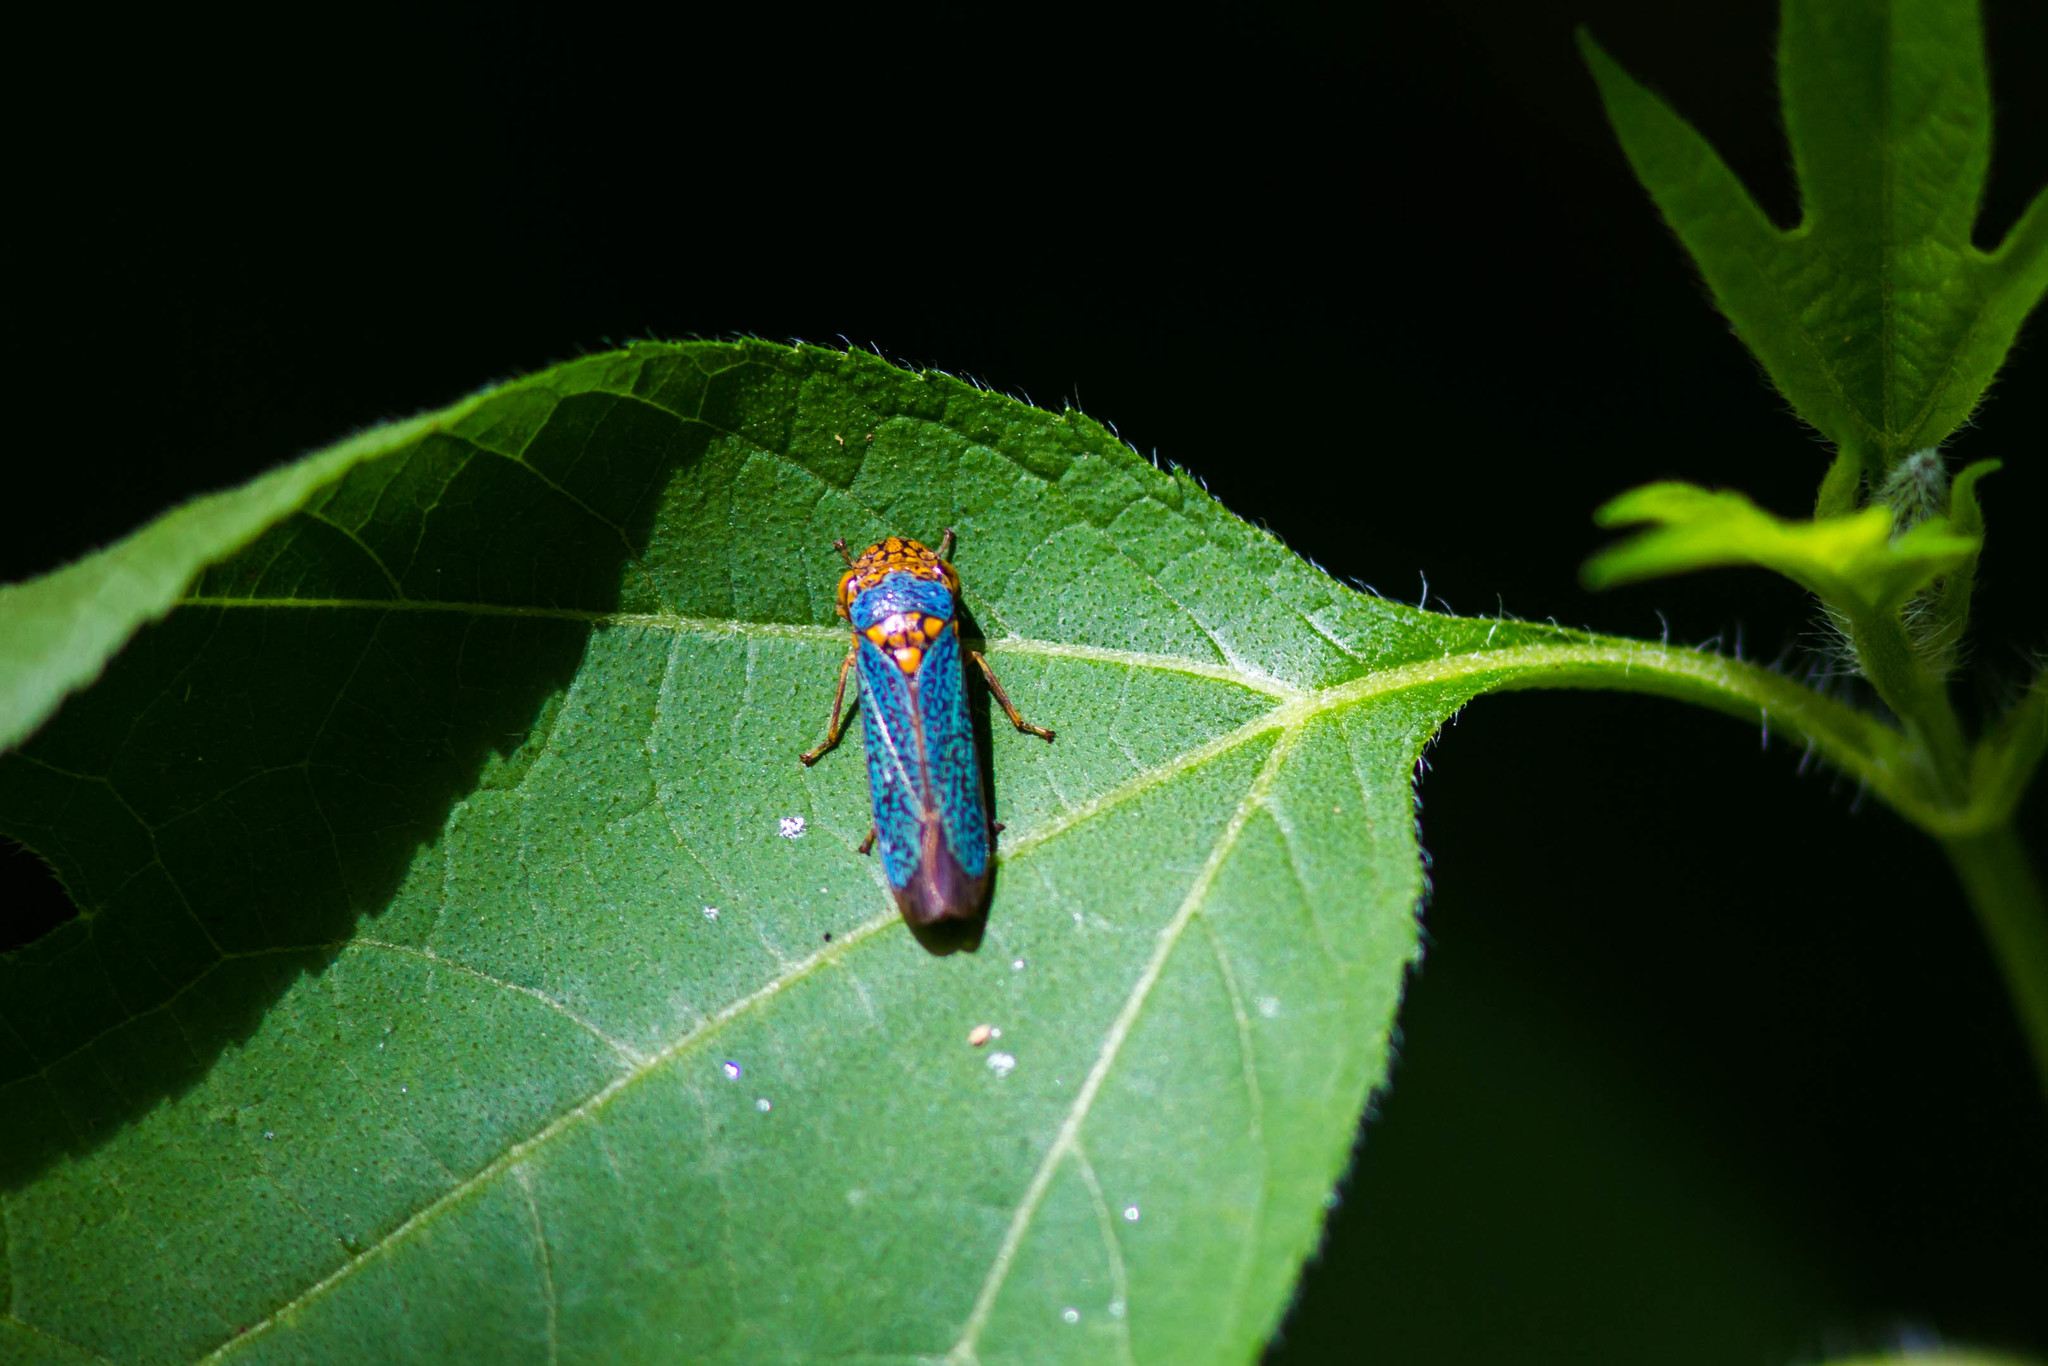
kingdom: Animalia
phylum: Arthropoda
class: Insecta
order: Hemiptera
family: Cicadellidae
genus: Oncometopia
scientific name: Oncometopia orbona
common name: Broad-headed sharpshooter
